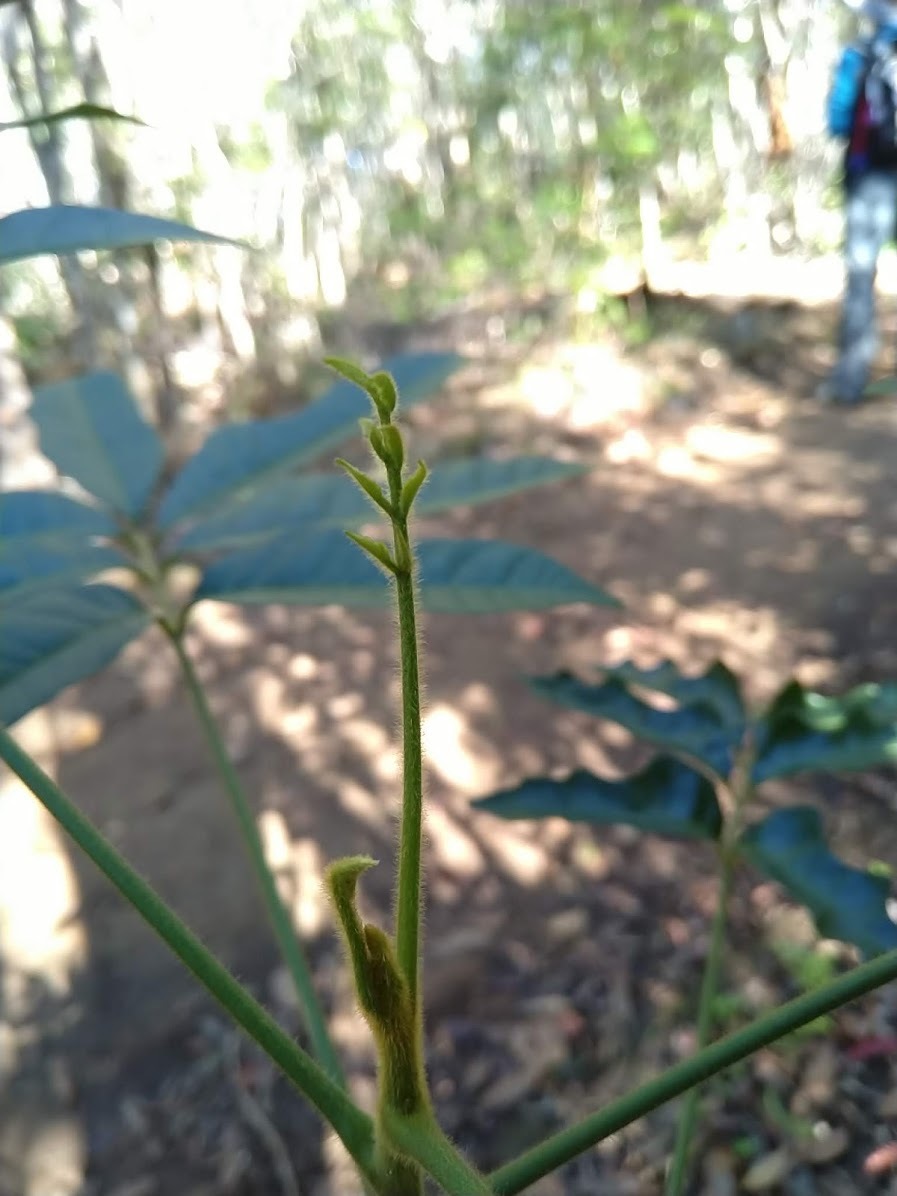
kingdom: Plantae
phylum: Tracheophyta
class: Magnoliopsida
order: Sapindales
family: Anacardiaceae
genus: Rhodosphaera
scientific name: Rhodosphaera rhodanthema
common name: Tulip satinwood
